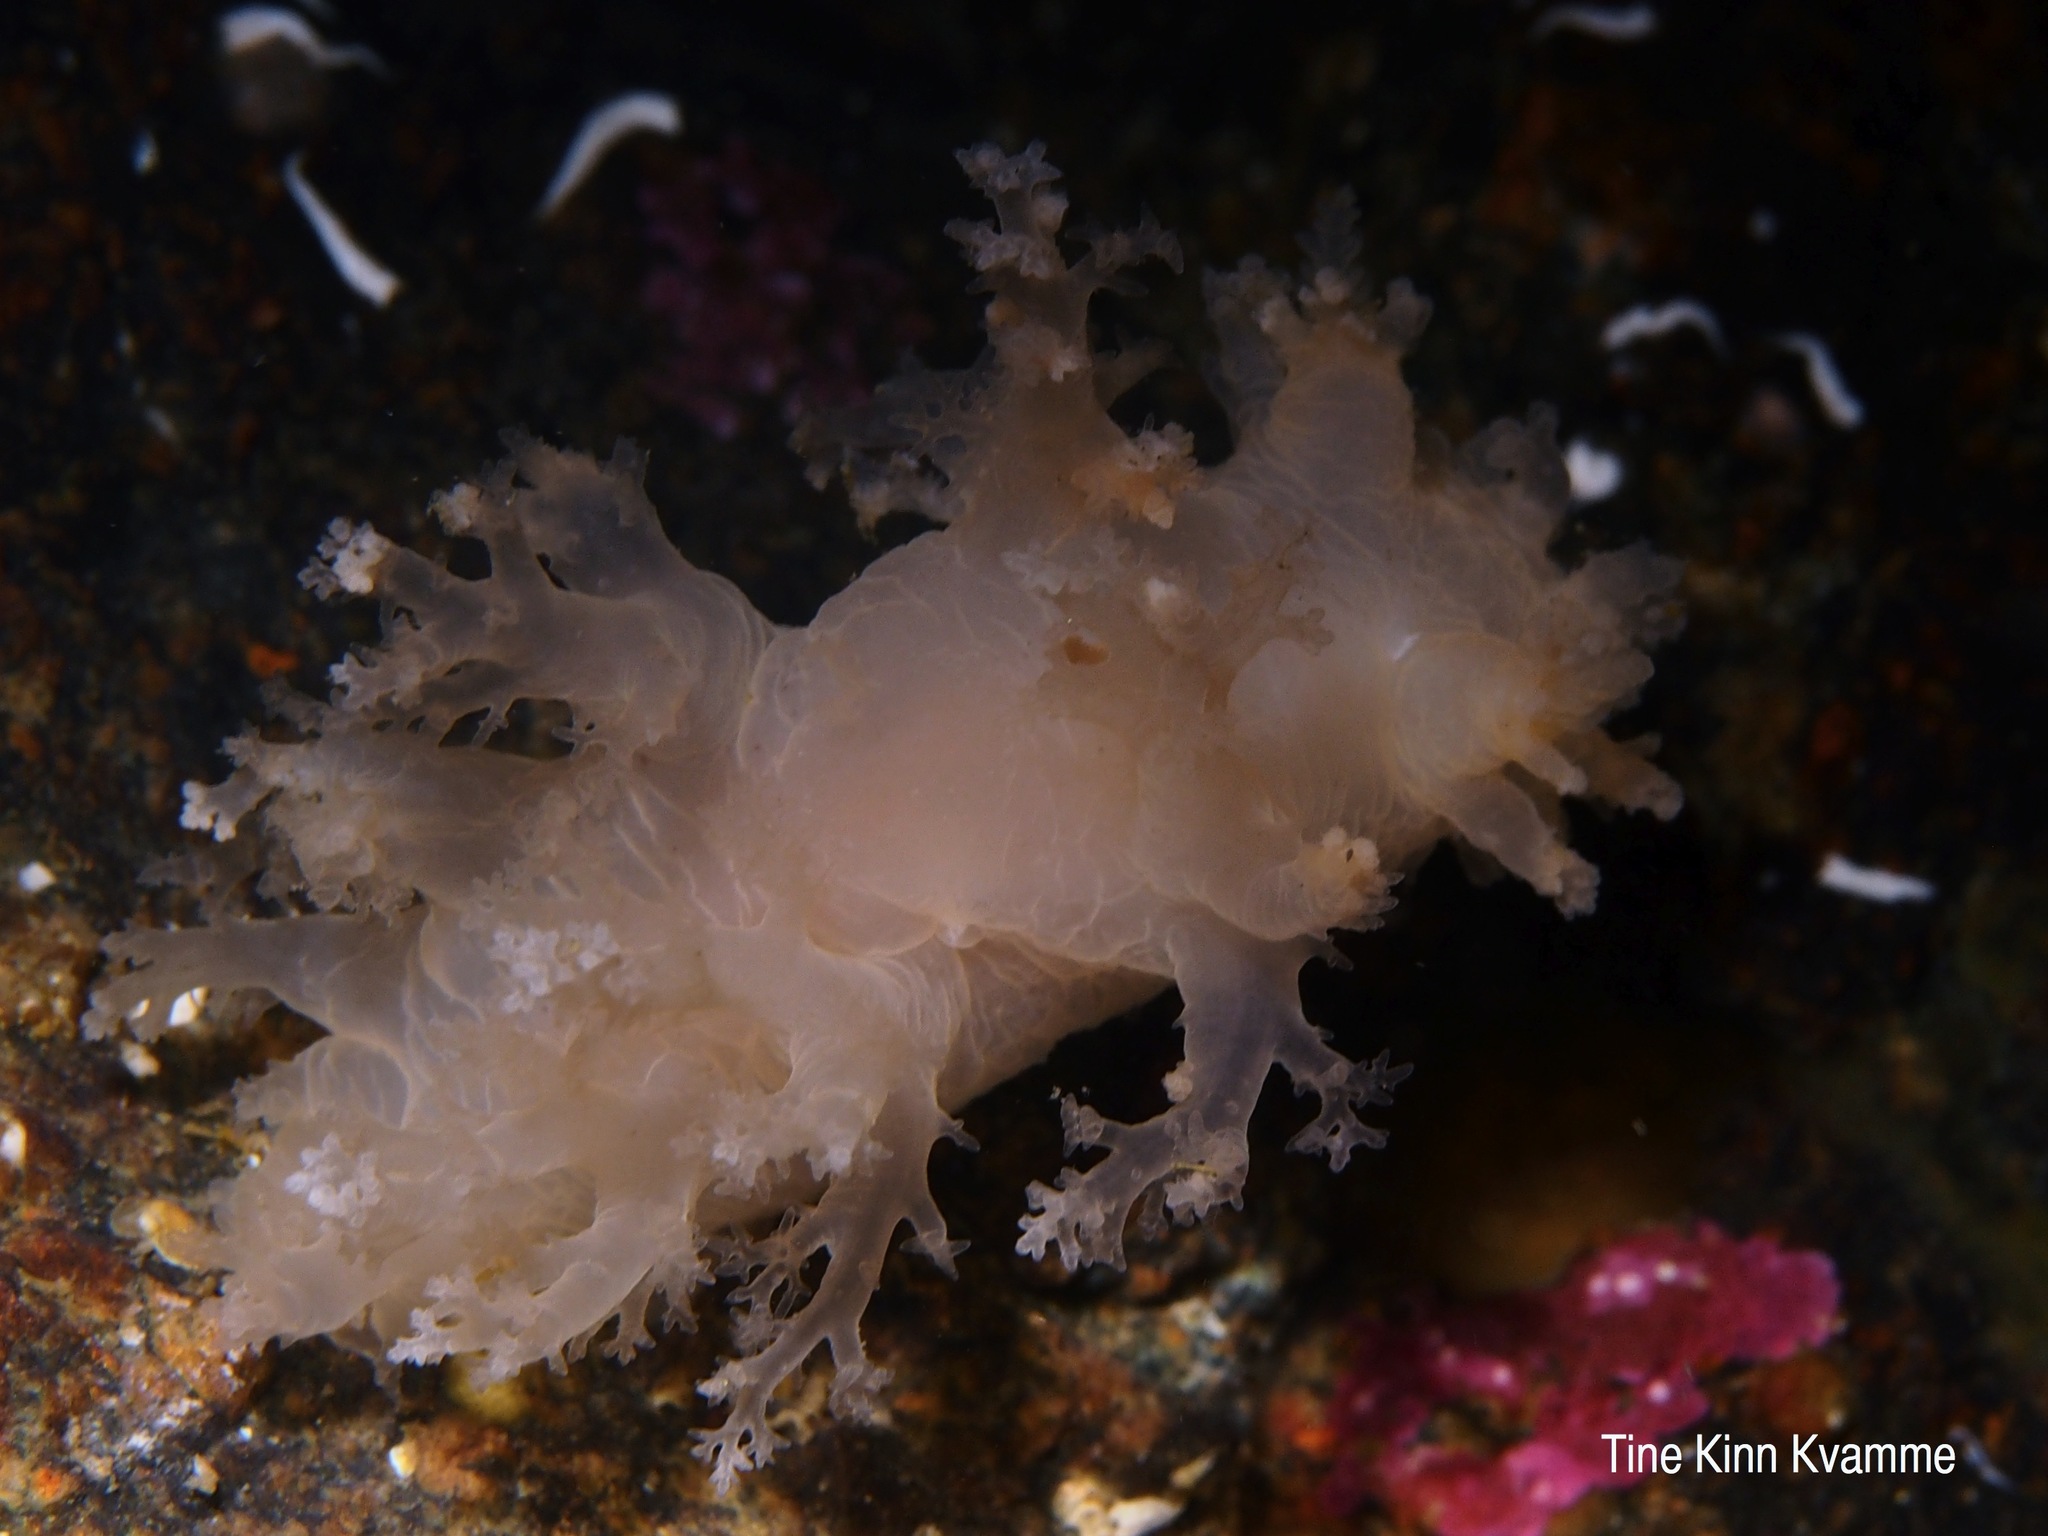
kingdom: Animalia
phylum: Mollusca
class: Gastropoda
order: Nudibranchia
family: Dendronotidae
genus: Dendronotus
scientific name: Dendronotus lacteus
